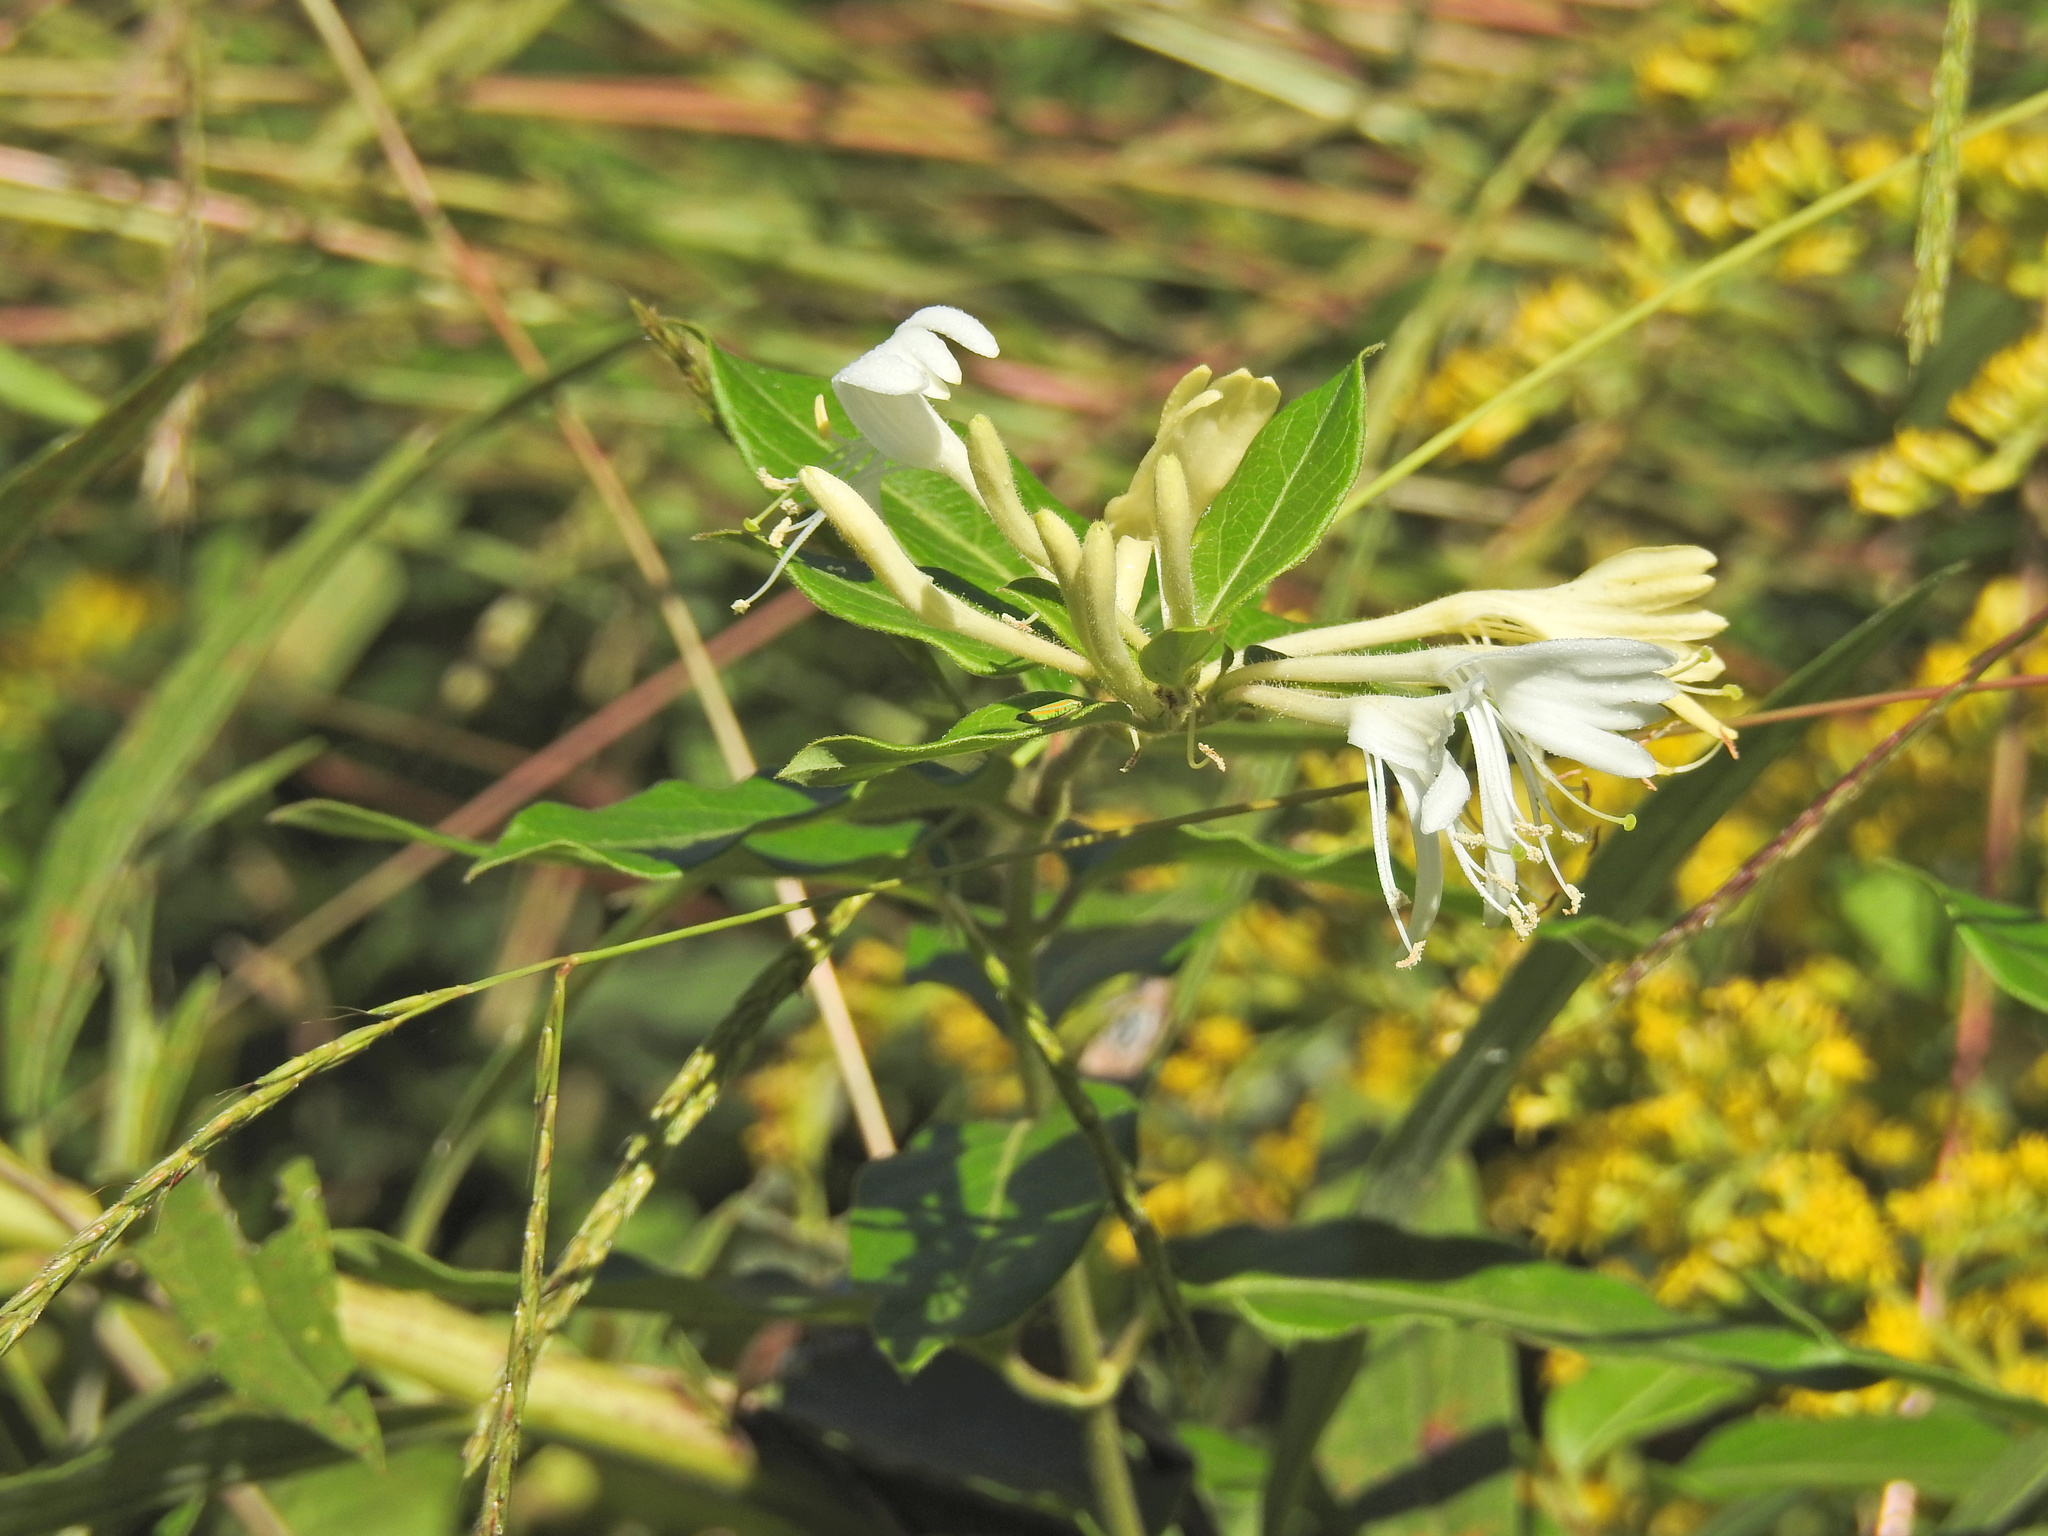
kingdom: Plantae
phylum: Tracheophyta
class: Magnoliopsida
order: Dipsacales
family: Caprifoliaceae
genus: Lonicera
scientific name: Lonicera japonica
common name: Japanese honeysuckle
